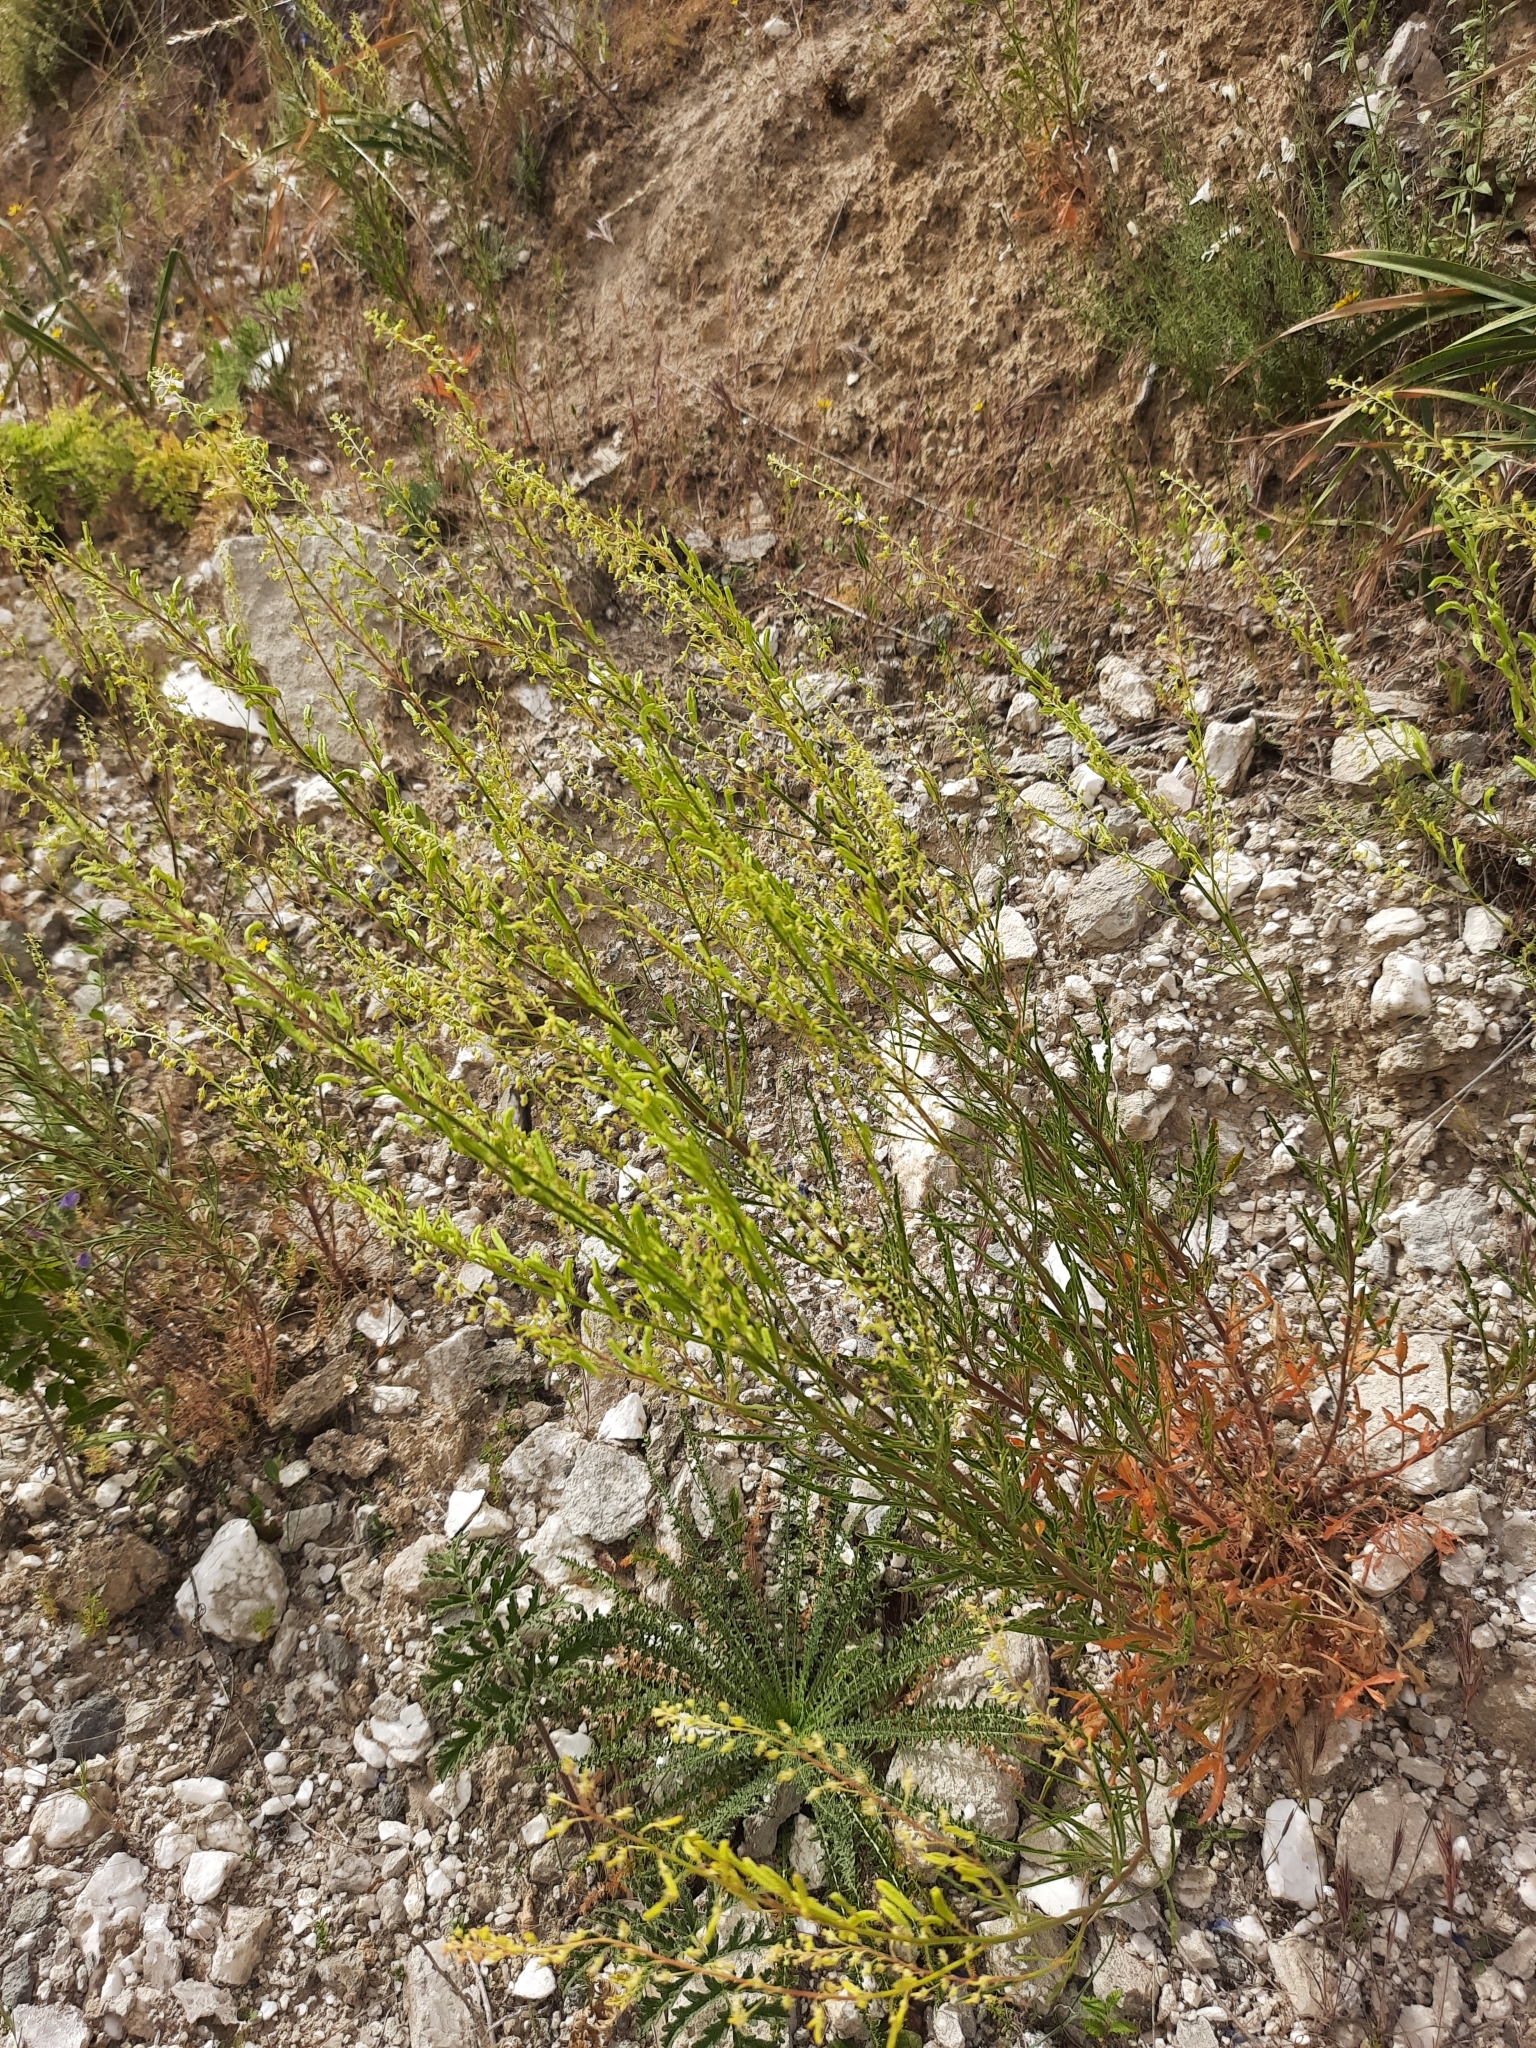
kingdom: Plantae
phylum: Tracheophyta
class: Magnoliopsida
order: Brassicales
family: Resedaceae
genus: Reseda
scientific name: Reseda lutea
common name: Wild mignonette
